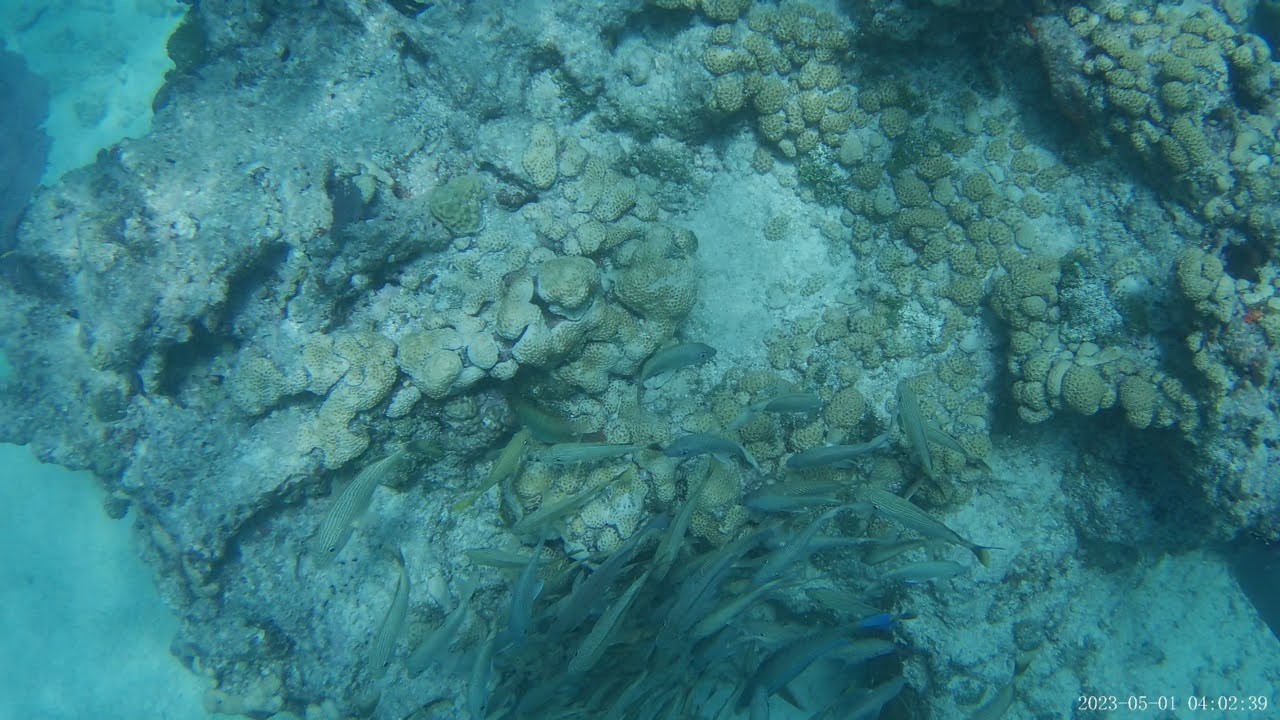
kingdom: Animalia
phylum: Chordata
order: Perciformes
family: Haemulidae
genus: Haemulon
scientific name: Haemulon plumierii
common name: White grunt
